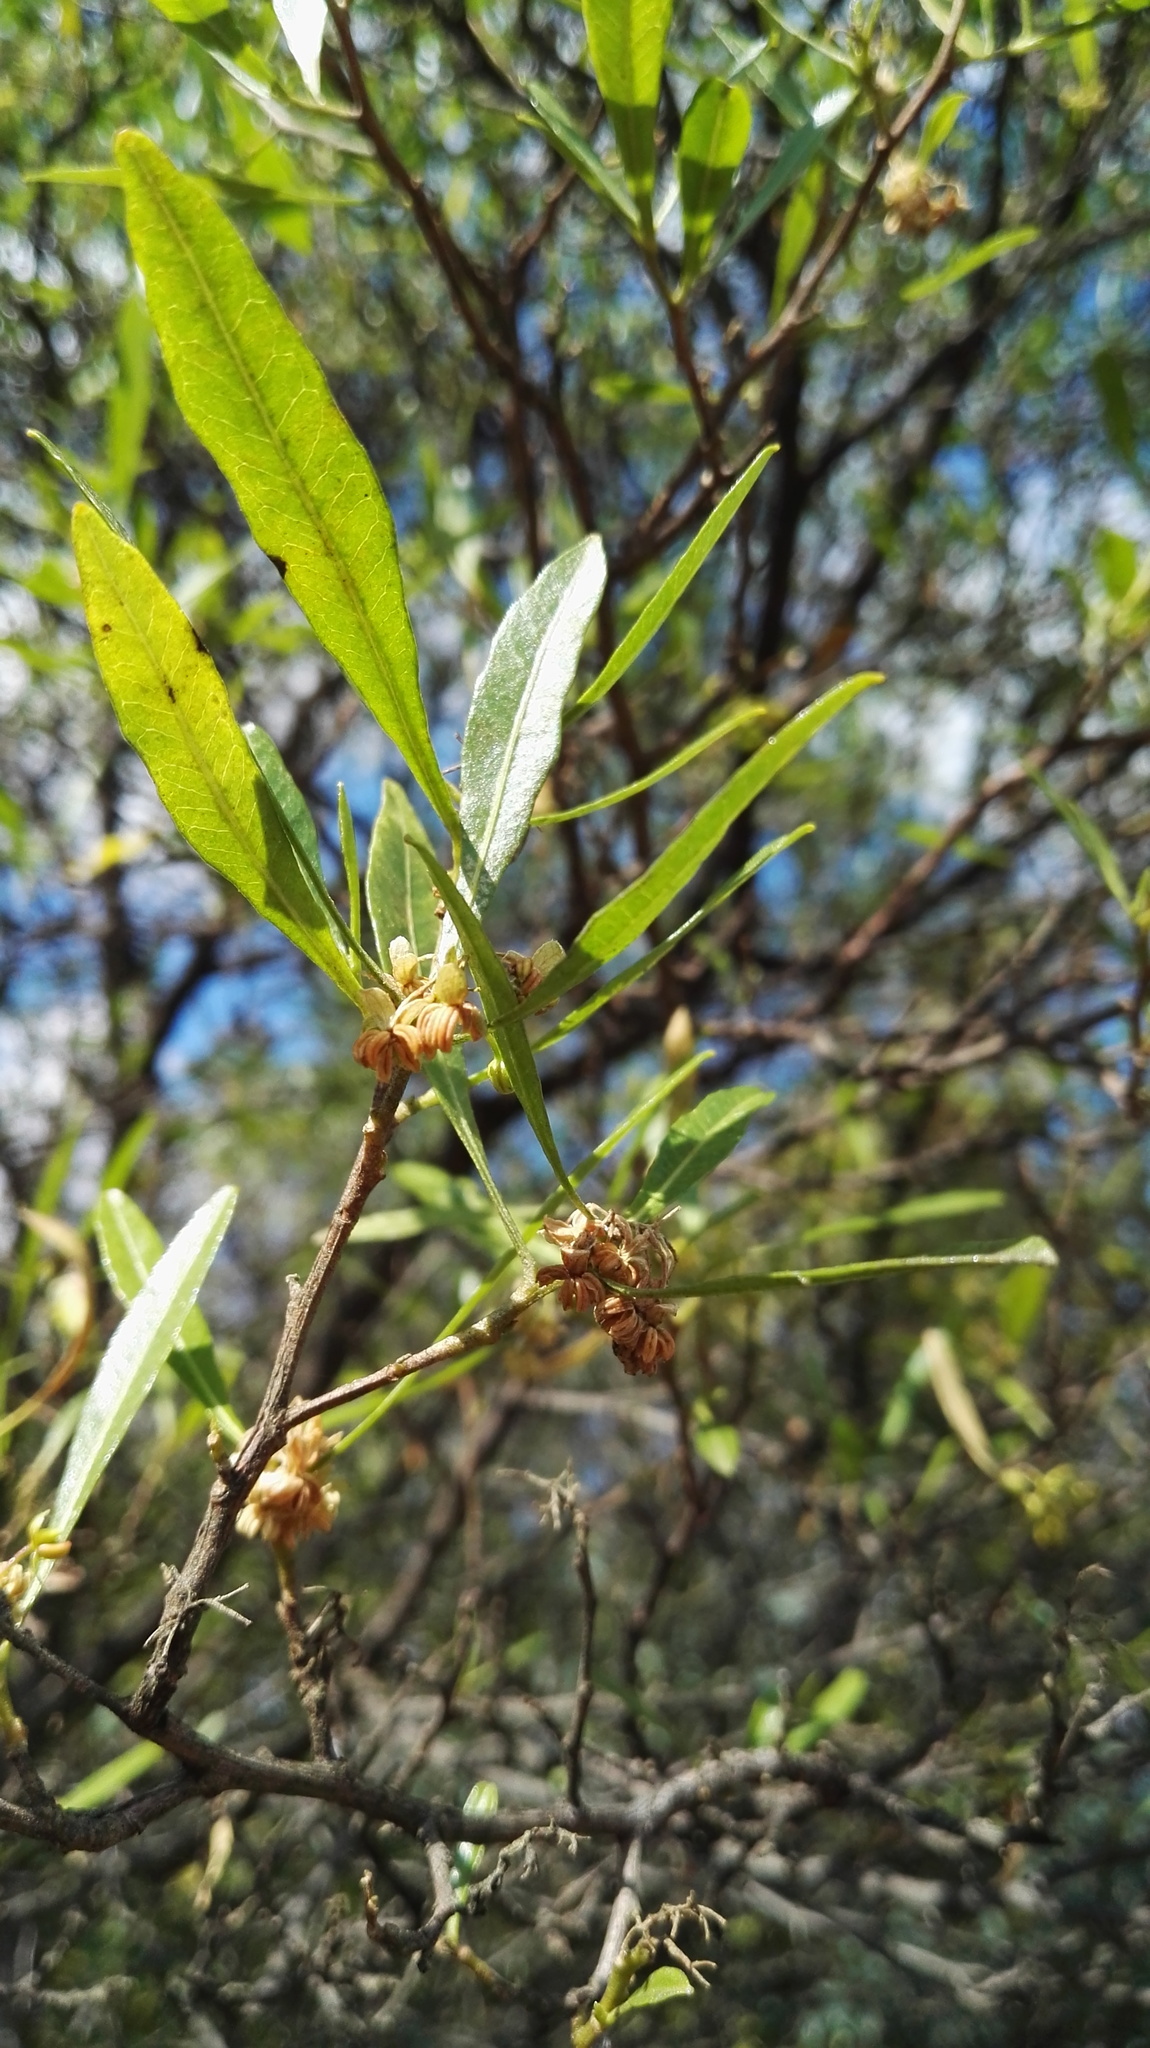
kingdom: Plantae
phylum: Tracheophyta
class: Magnoliopsida
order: Sapindales
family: Sapindaceae
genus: Dodonaea
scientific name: Dodonaea viscosa
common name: Hopbush
